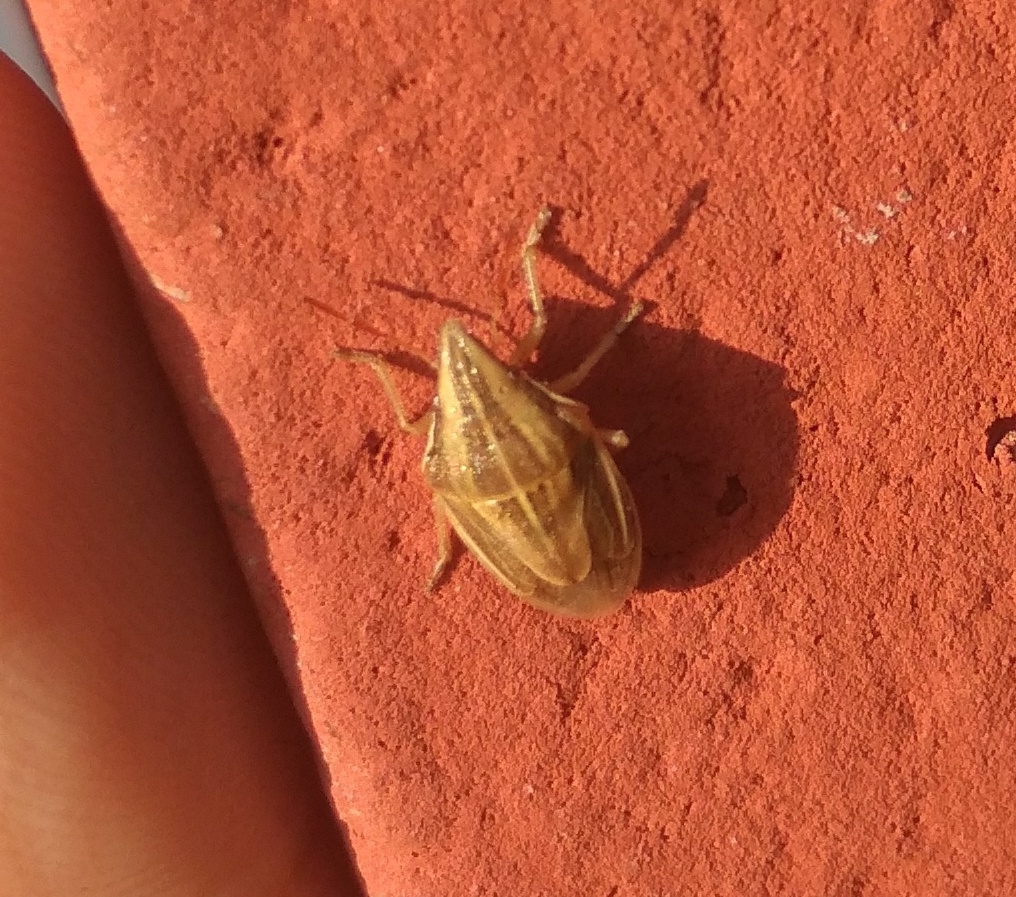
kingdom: Animalia
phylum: Arthropoda
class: Insecta
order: Hemiptera
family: Pentatomidae
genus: Aelia
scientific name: Aelia acuminata
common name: Bishop's mitre
